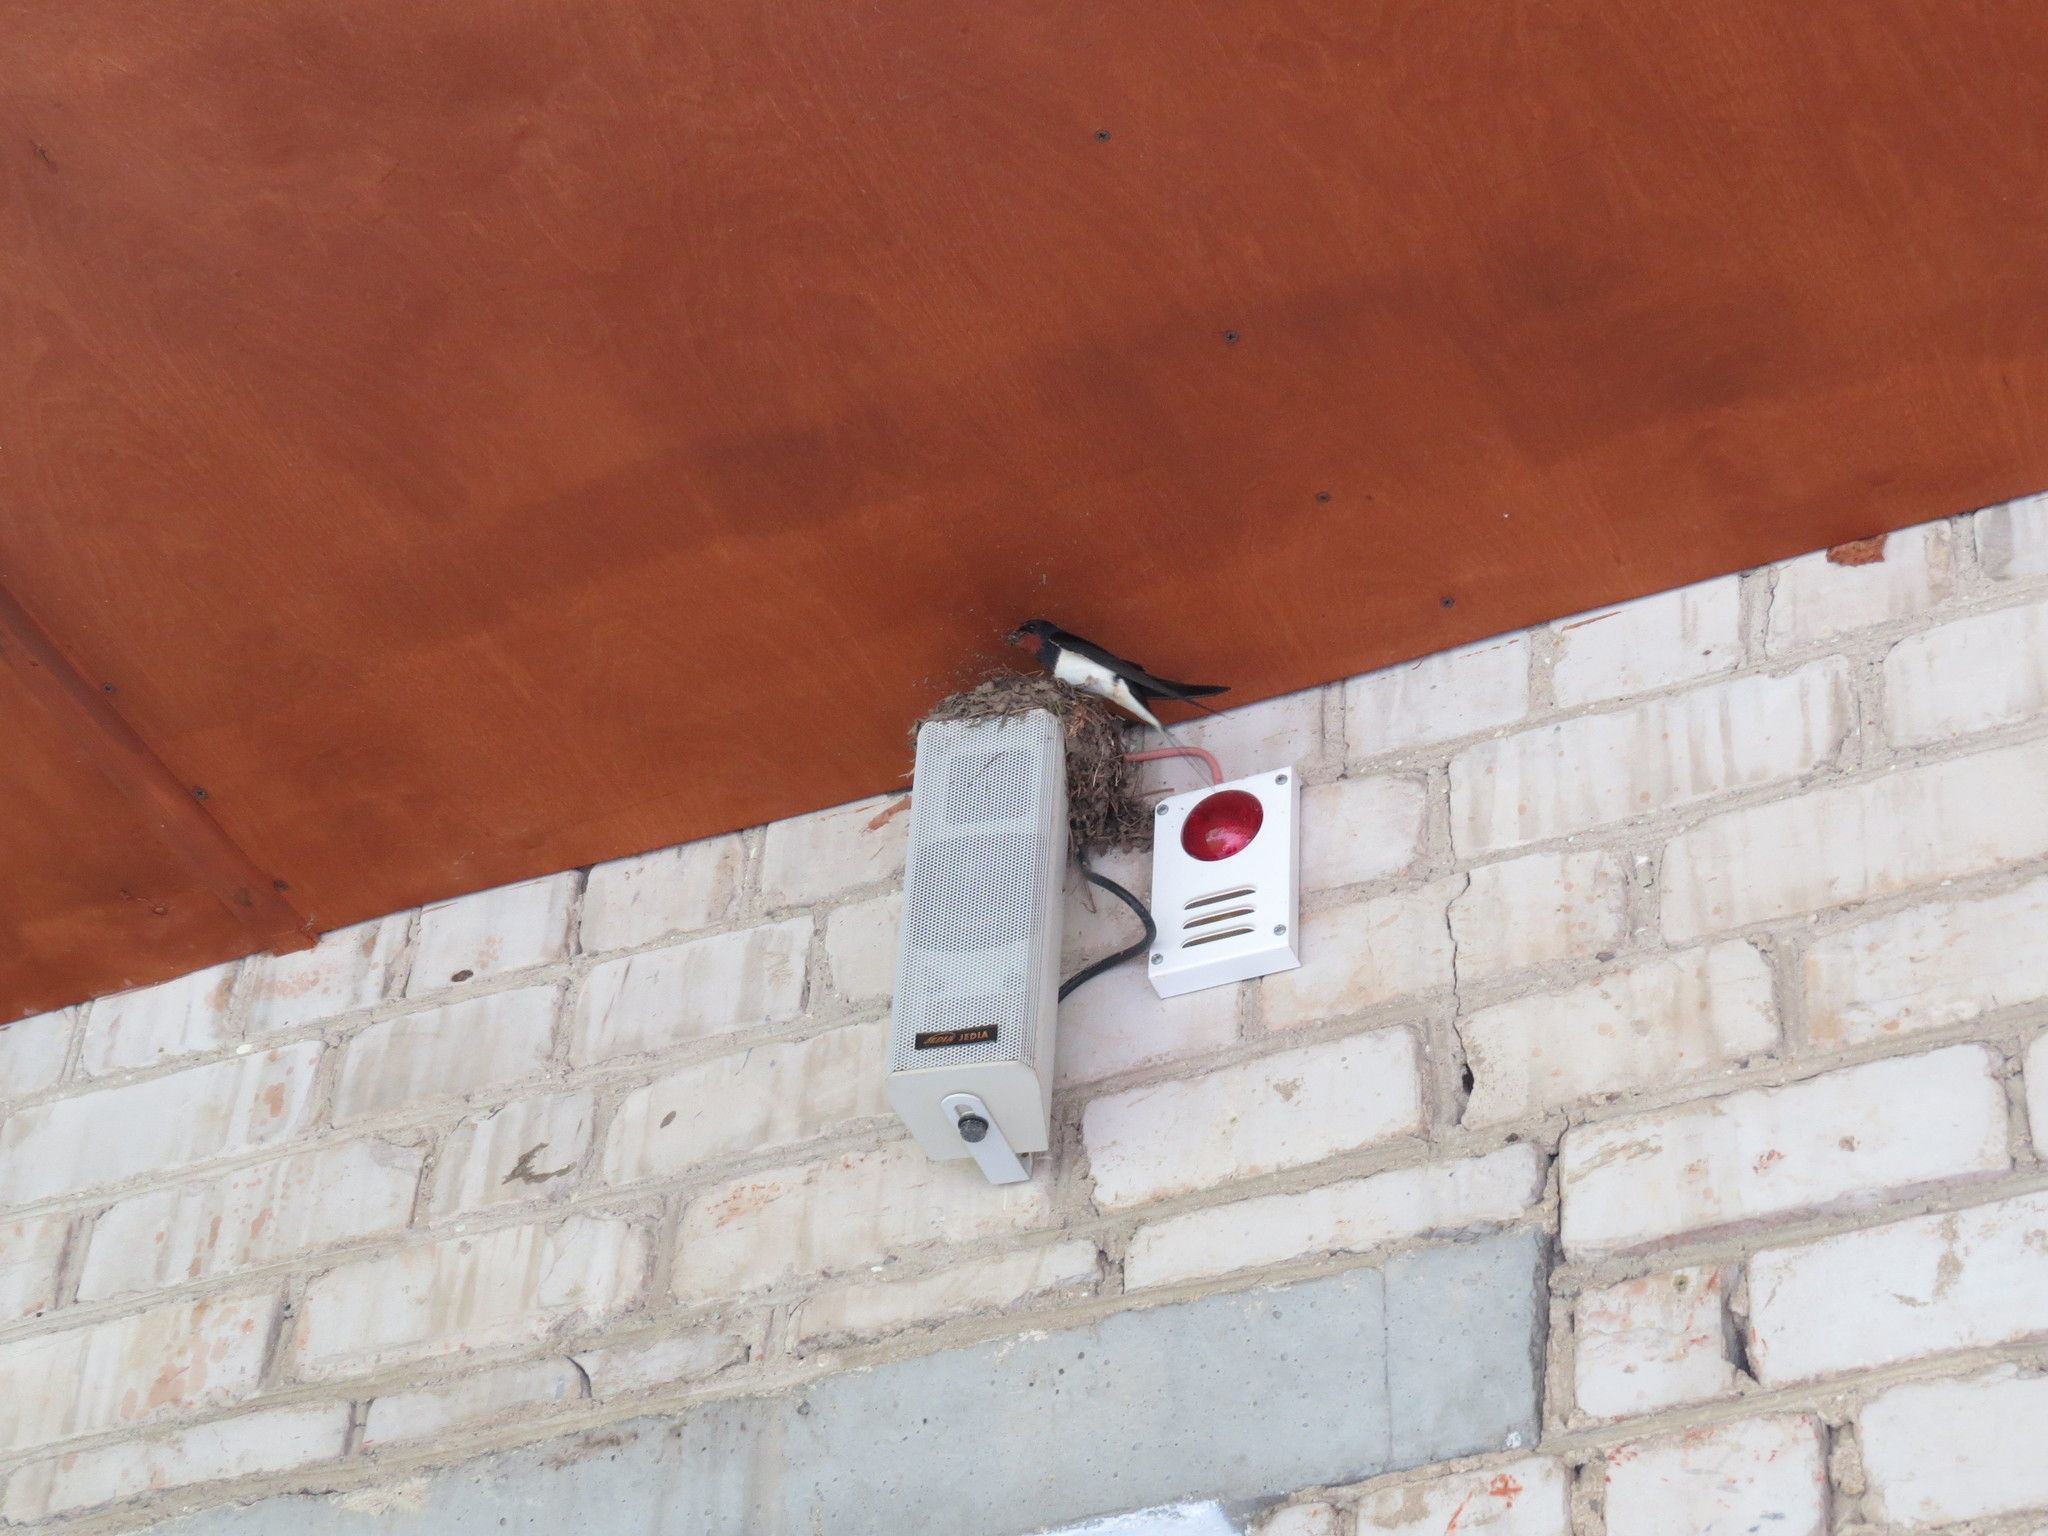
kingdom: Animalia
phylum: Chordata
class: Aves
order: Passeriformes
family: Hirundinidae
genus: Hirundo
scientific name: Hirundo rustica
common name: Barn swallow
